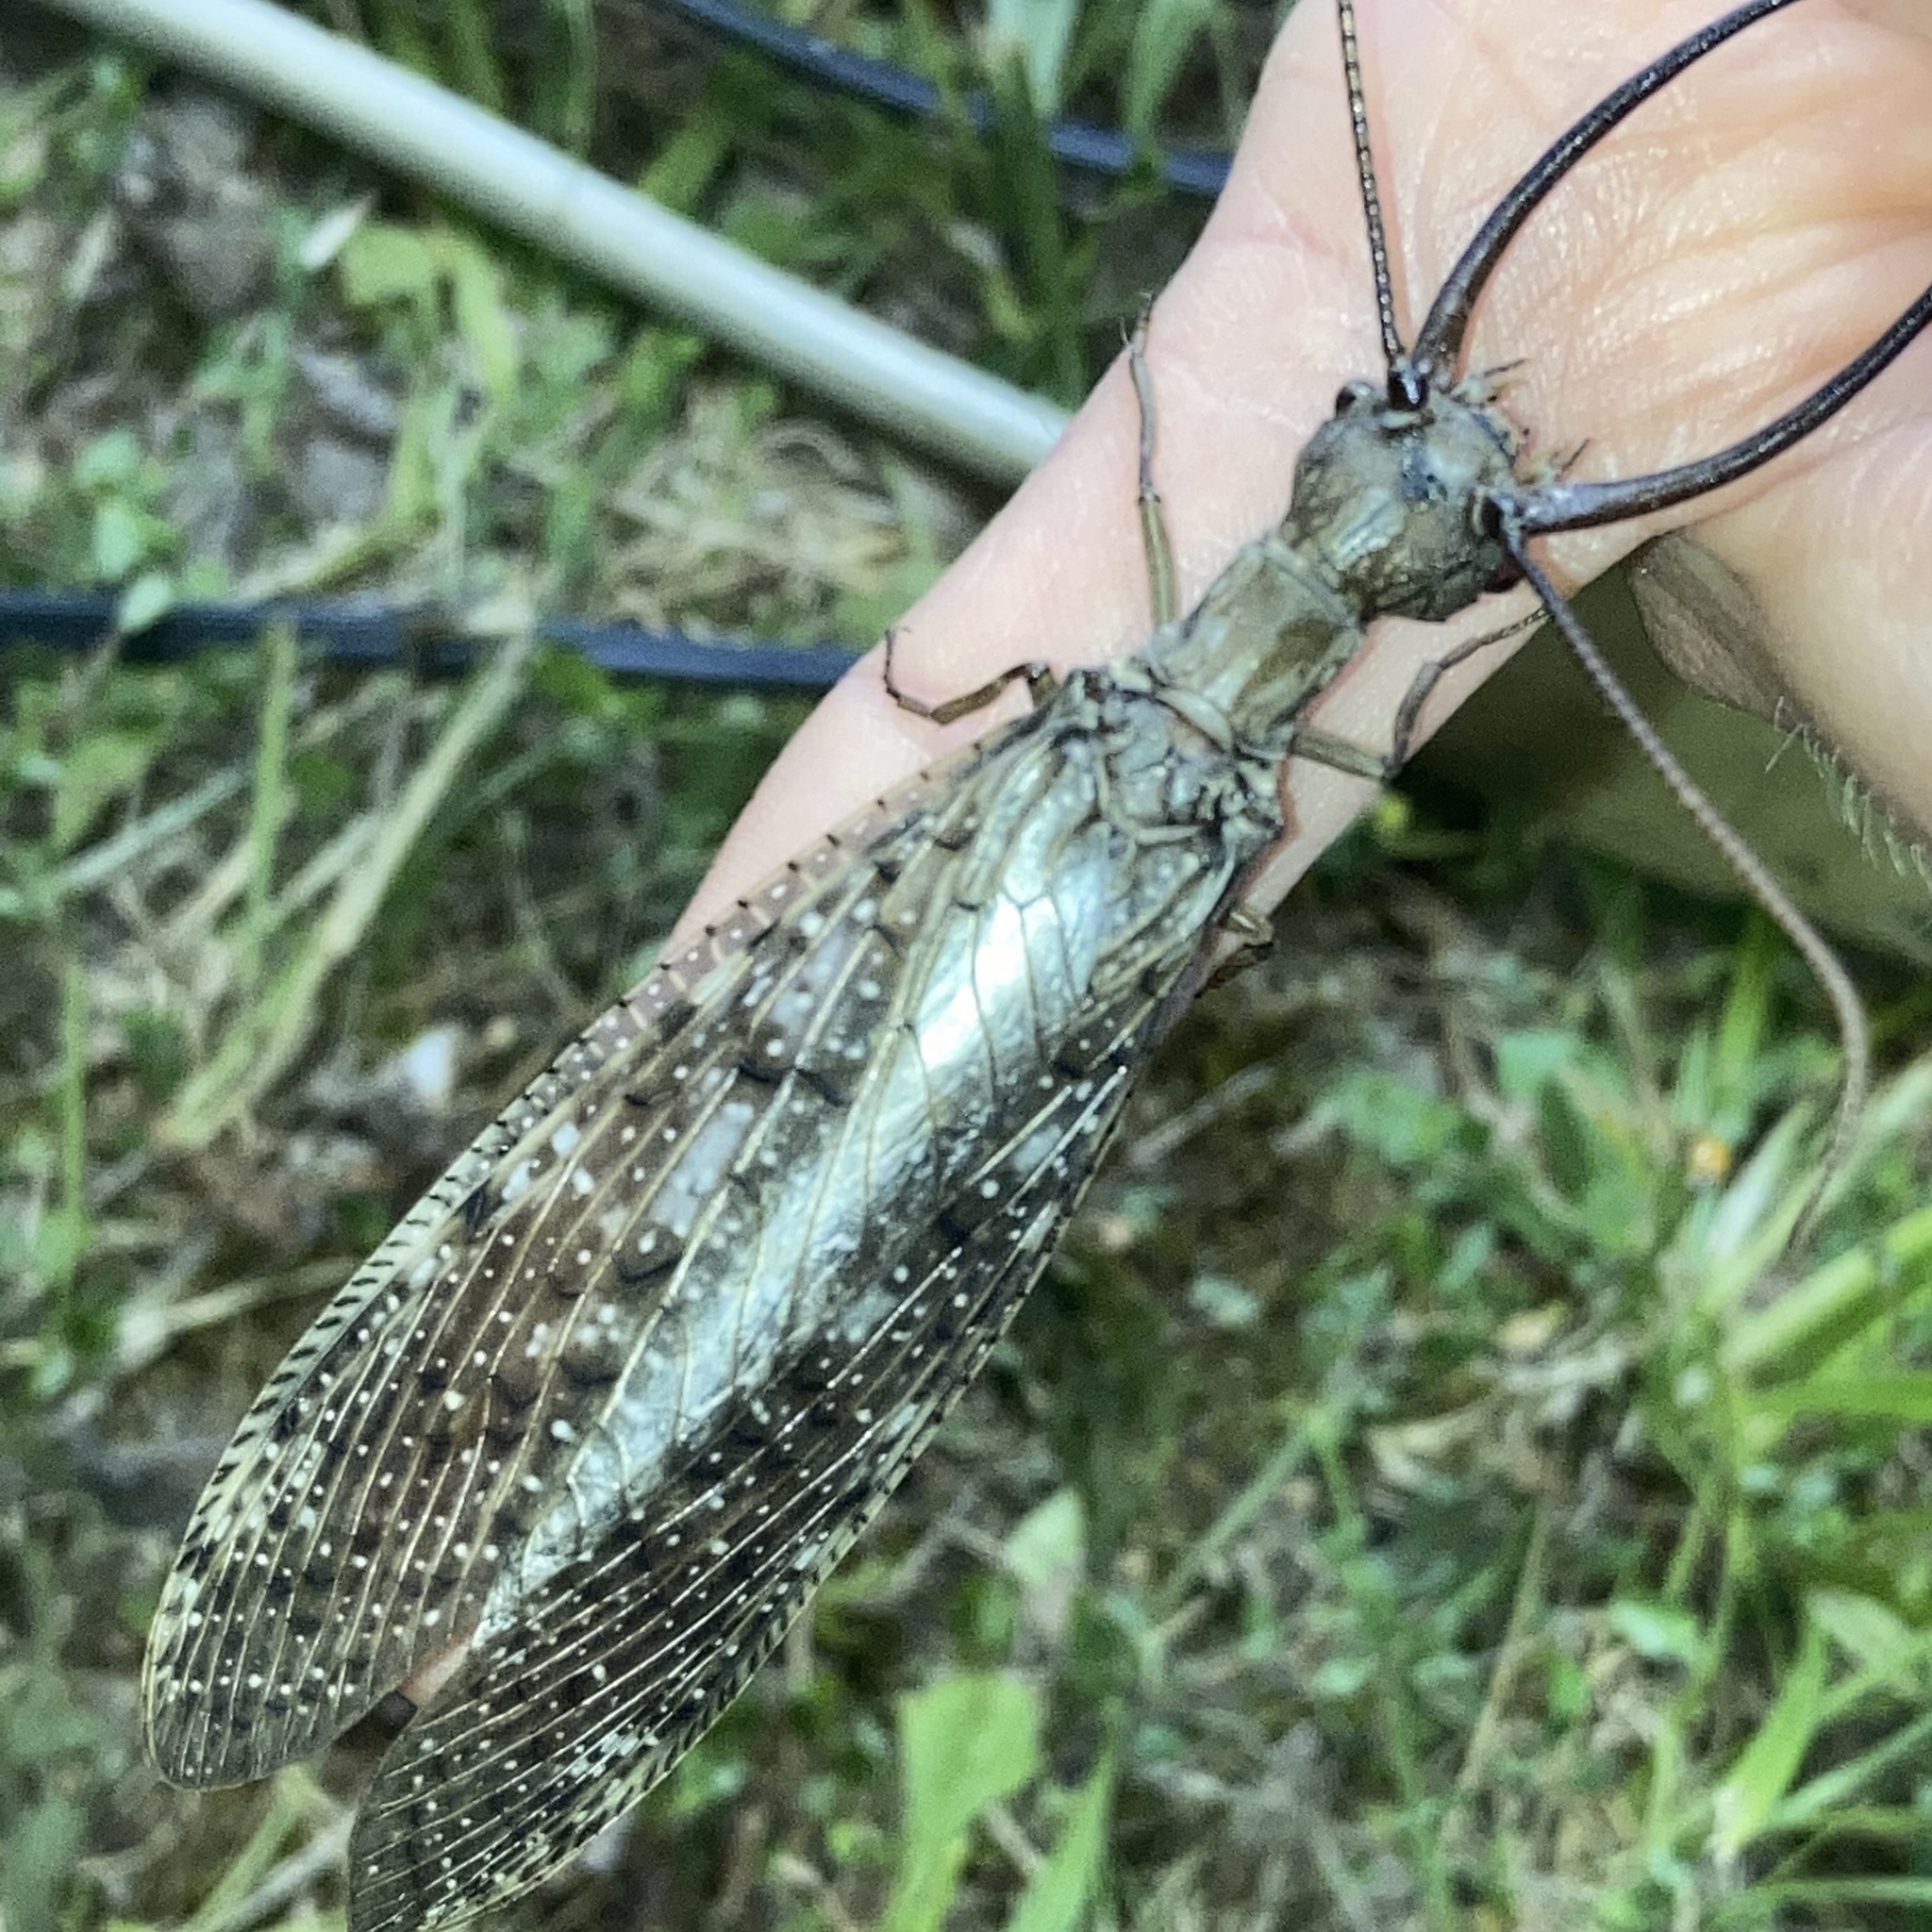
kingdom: Animalia
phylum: Arthropoda
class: Insecta
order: Megaloptera
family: Corydalidae
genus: Corydalus
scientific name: Corydalus cornutus
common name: Dobsonfly
